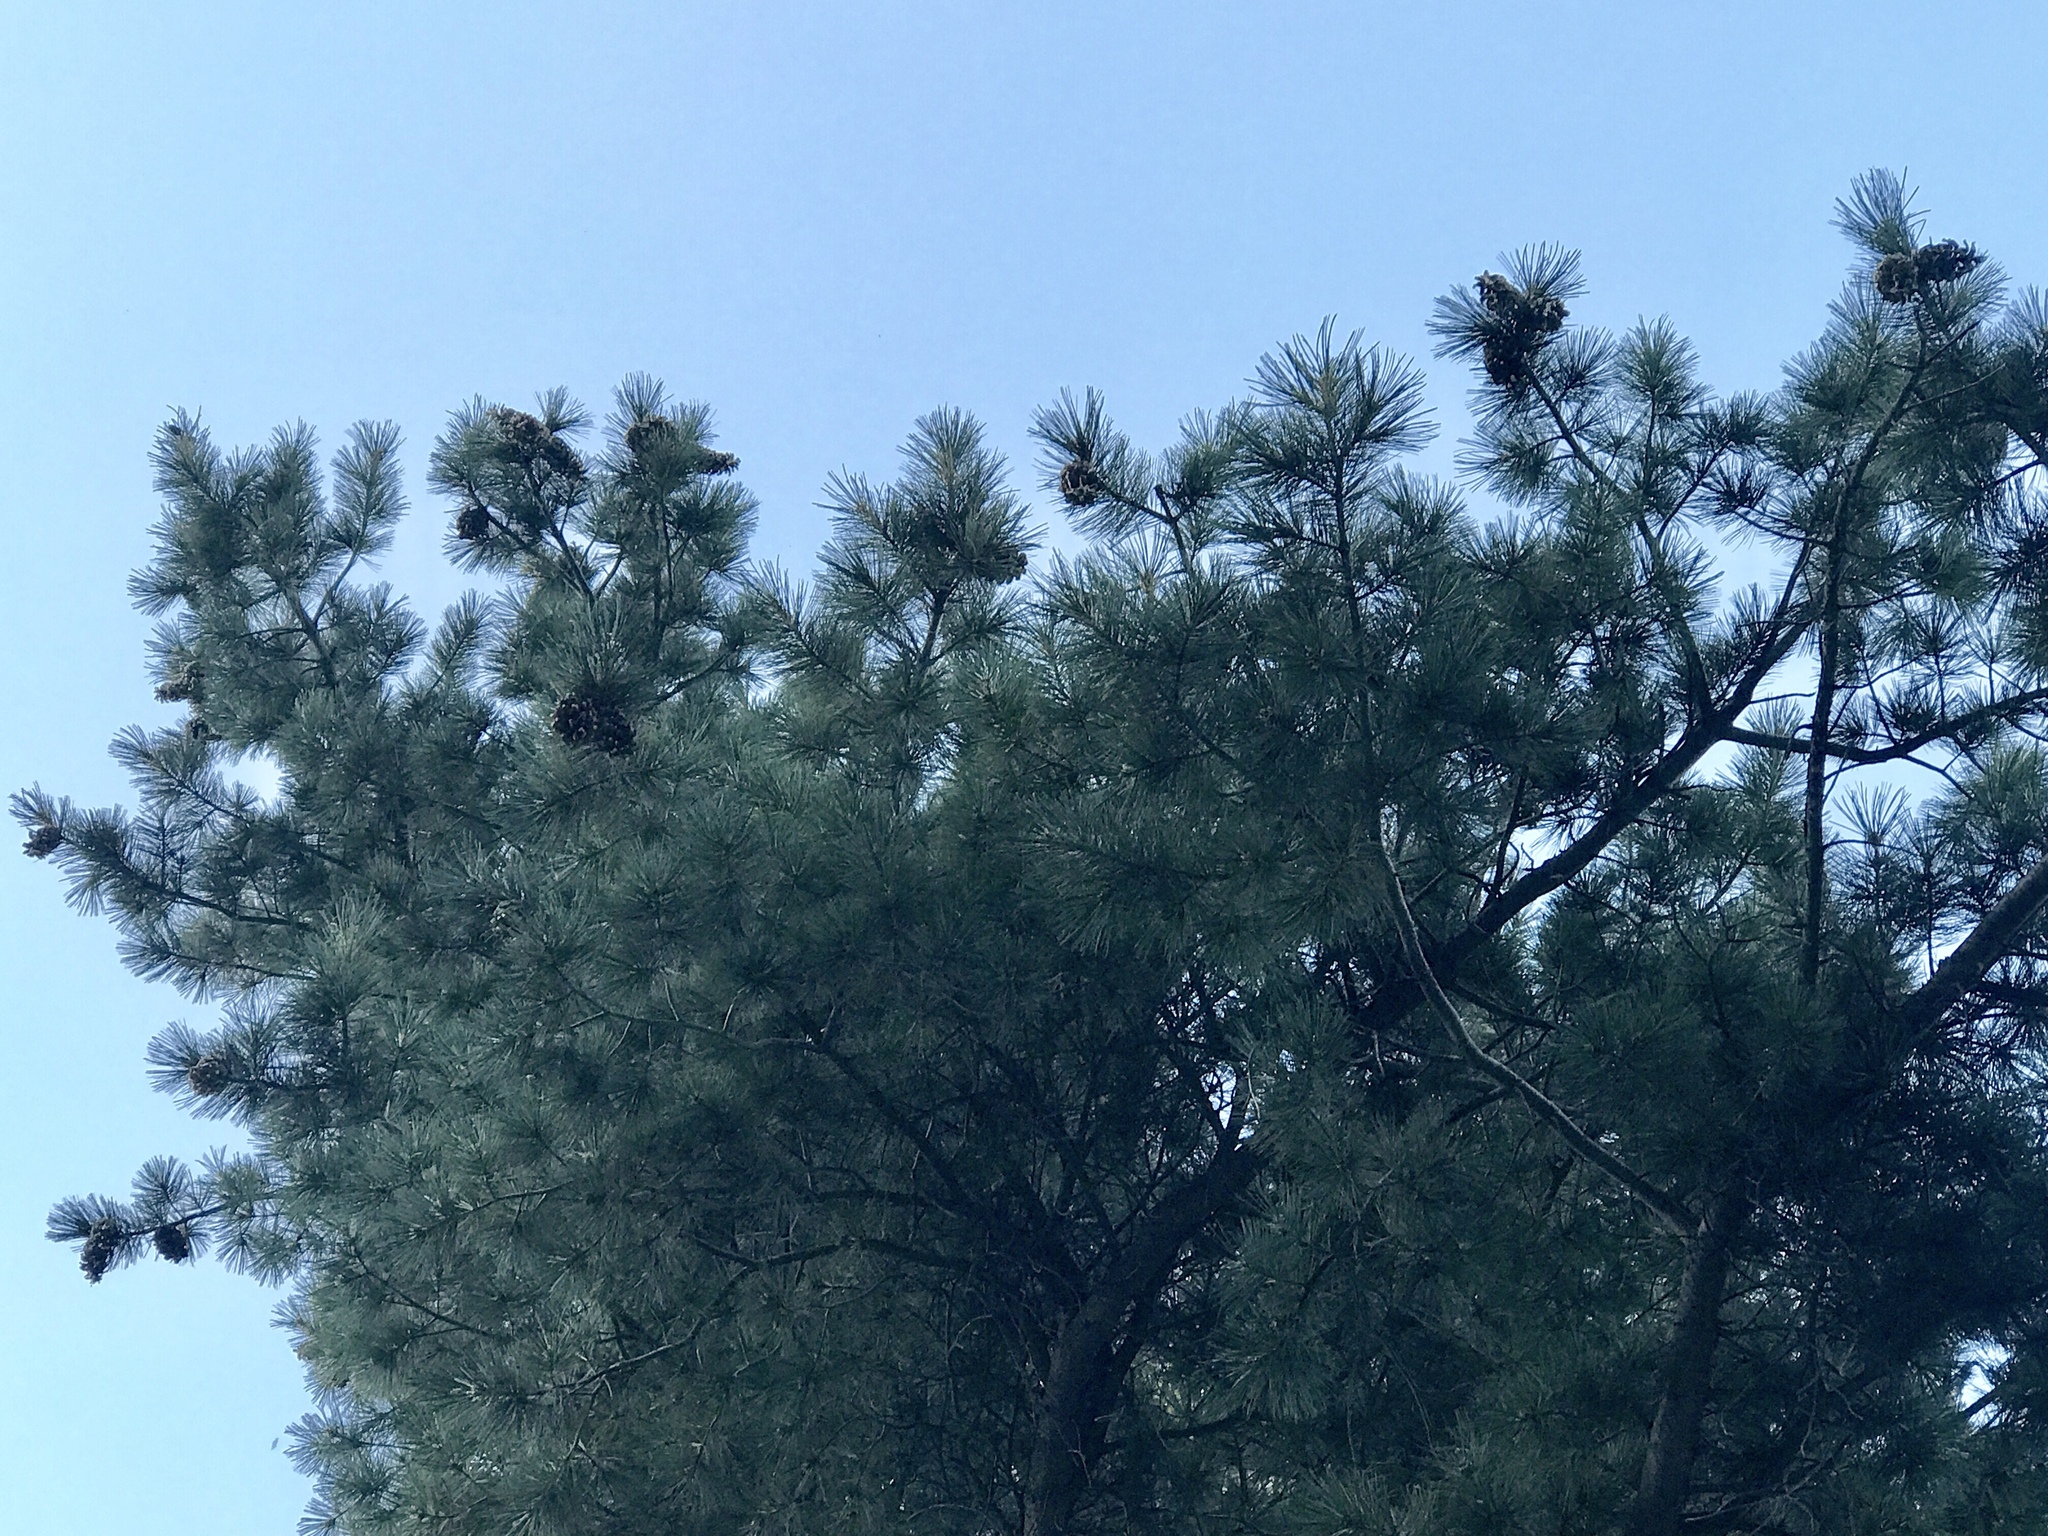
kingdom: Plantae
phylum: Tracheophyta
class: Pinopsida
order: Pinales
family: Pinaceae
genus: Pinus
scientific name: Pinus strobiformis
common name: Southwestern white pine
